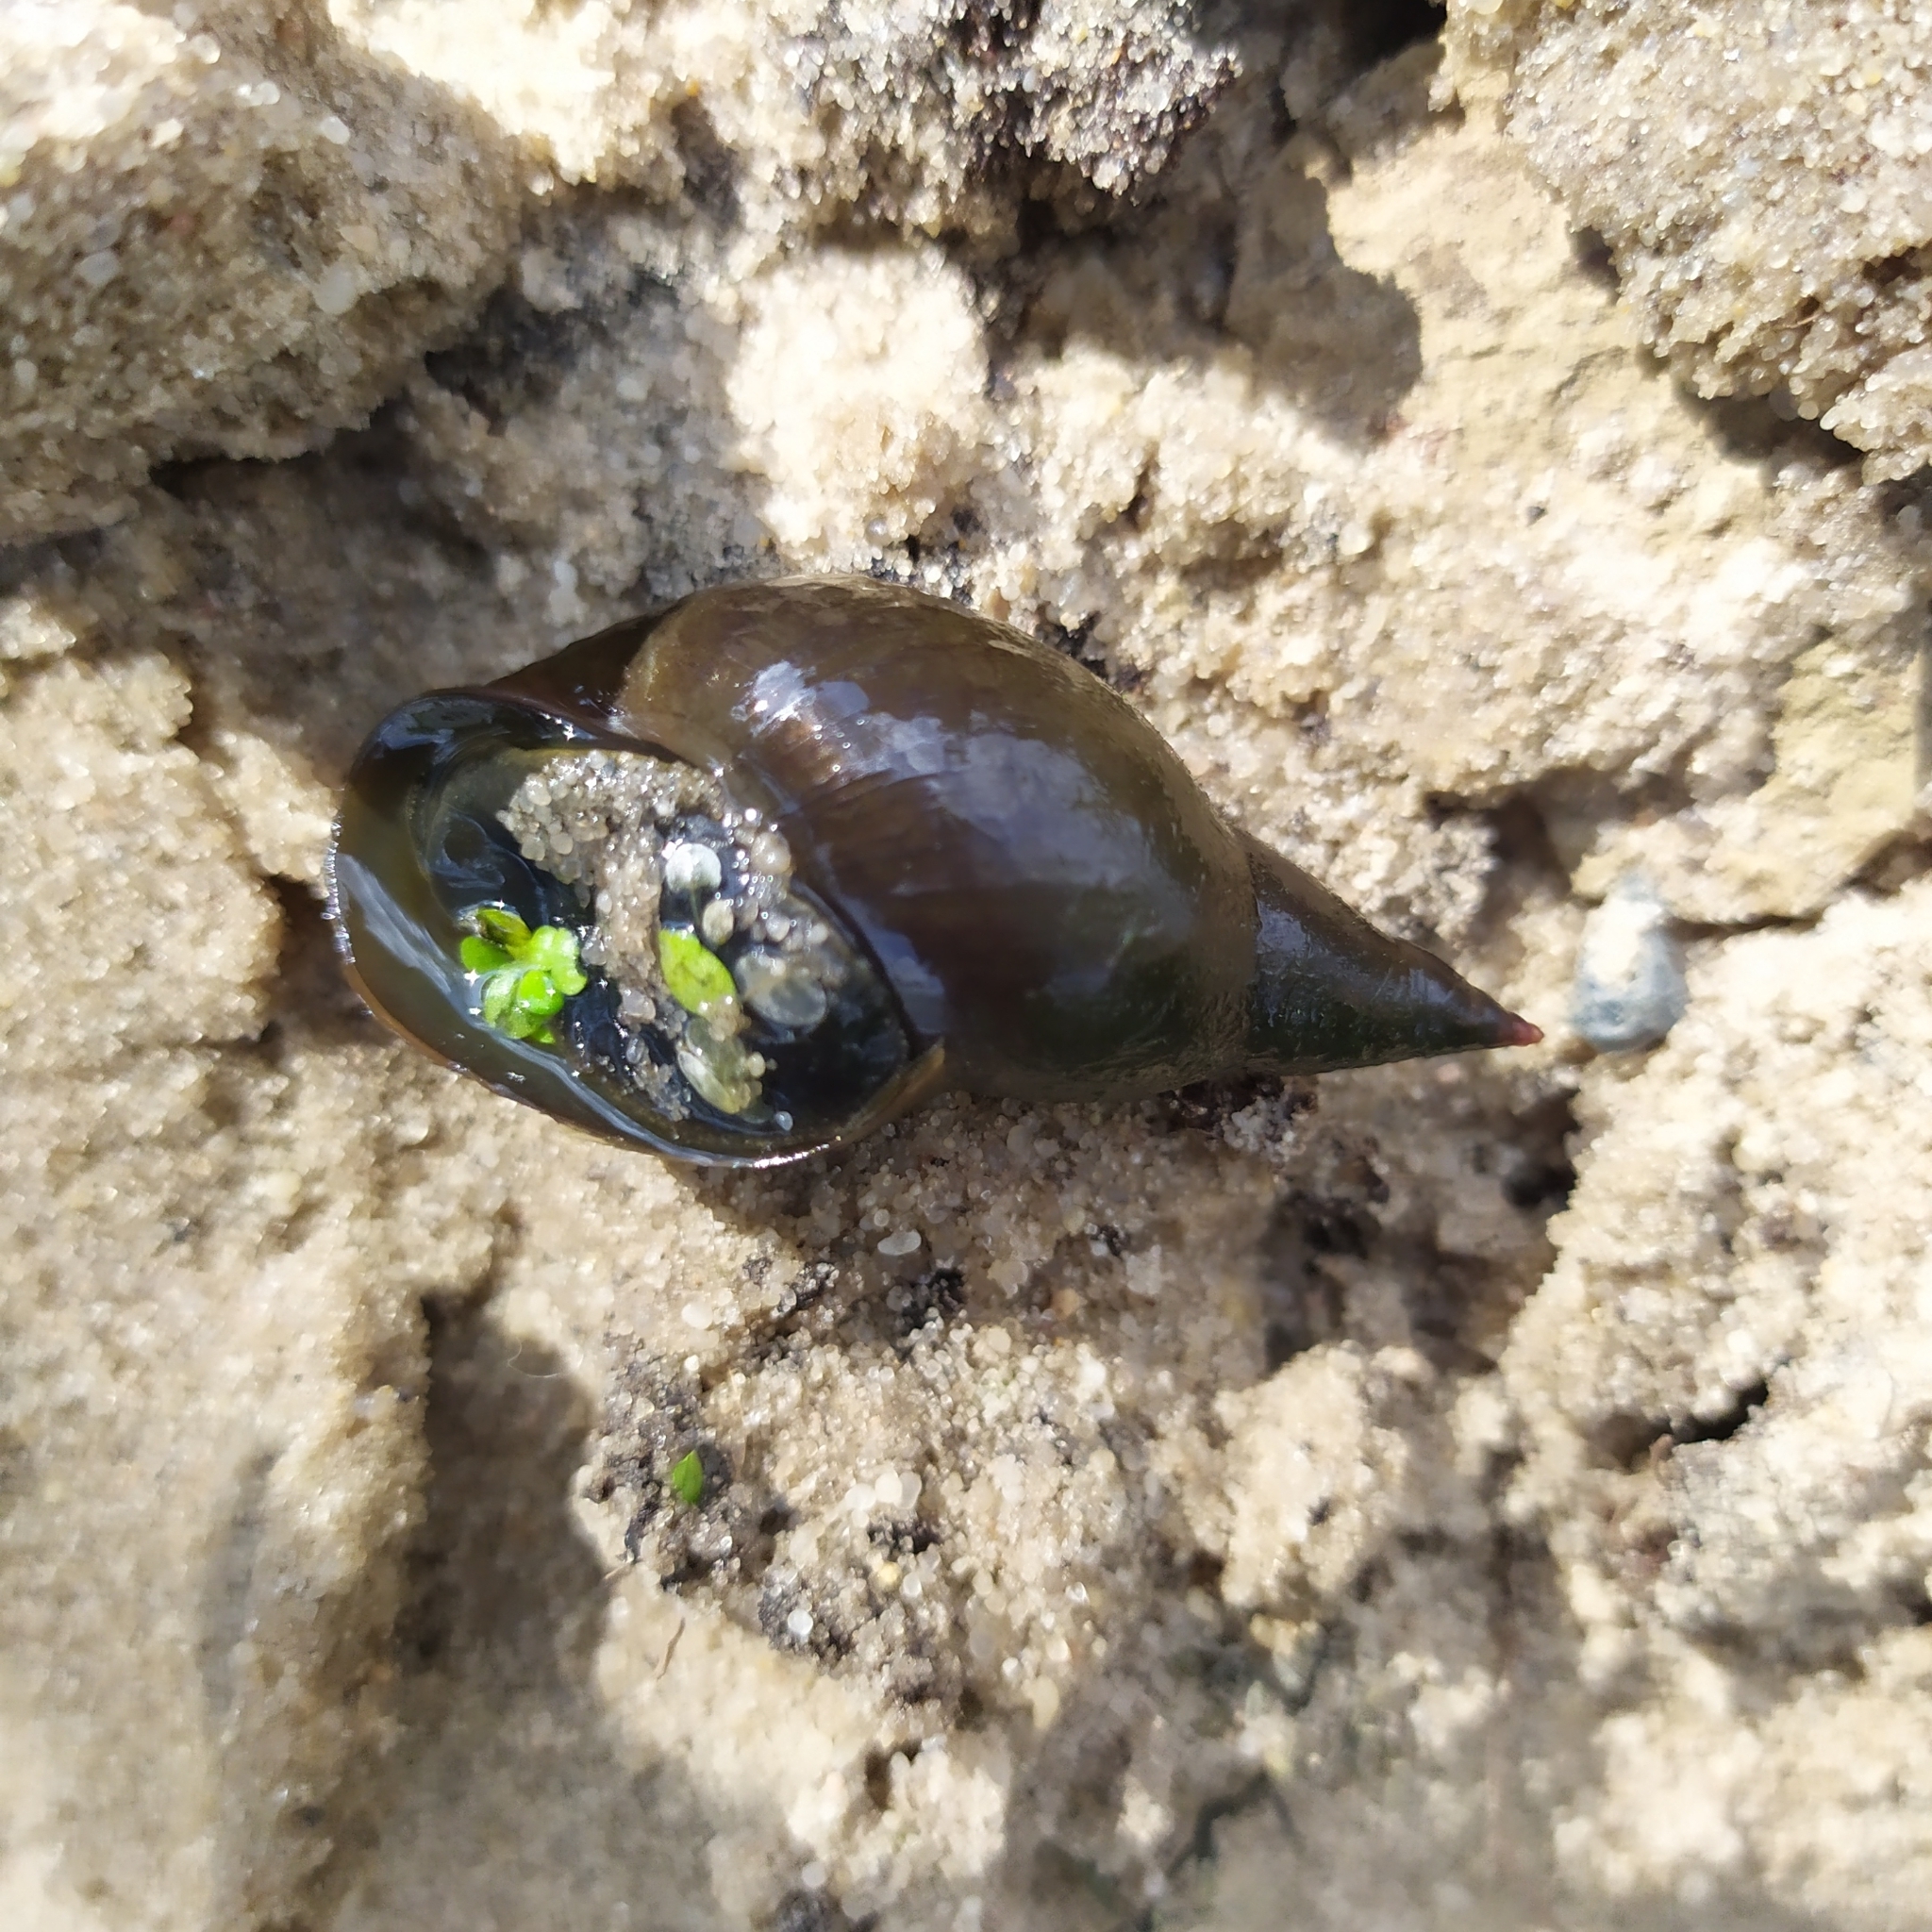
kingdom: Animalia
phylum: Mollusca
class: Gastropoda
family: Lymnaeidae
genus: Lymnaea
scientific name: Lymnaea stagnalis
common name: Great pond snail
